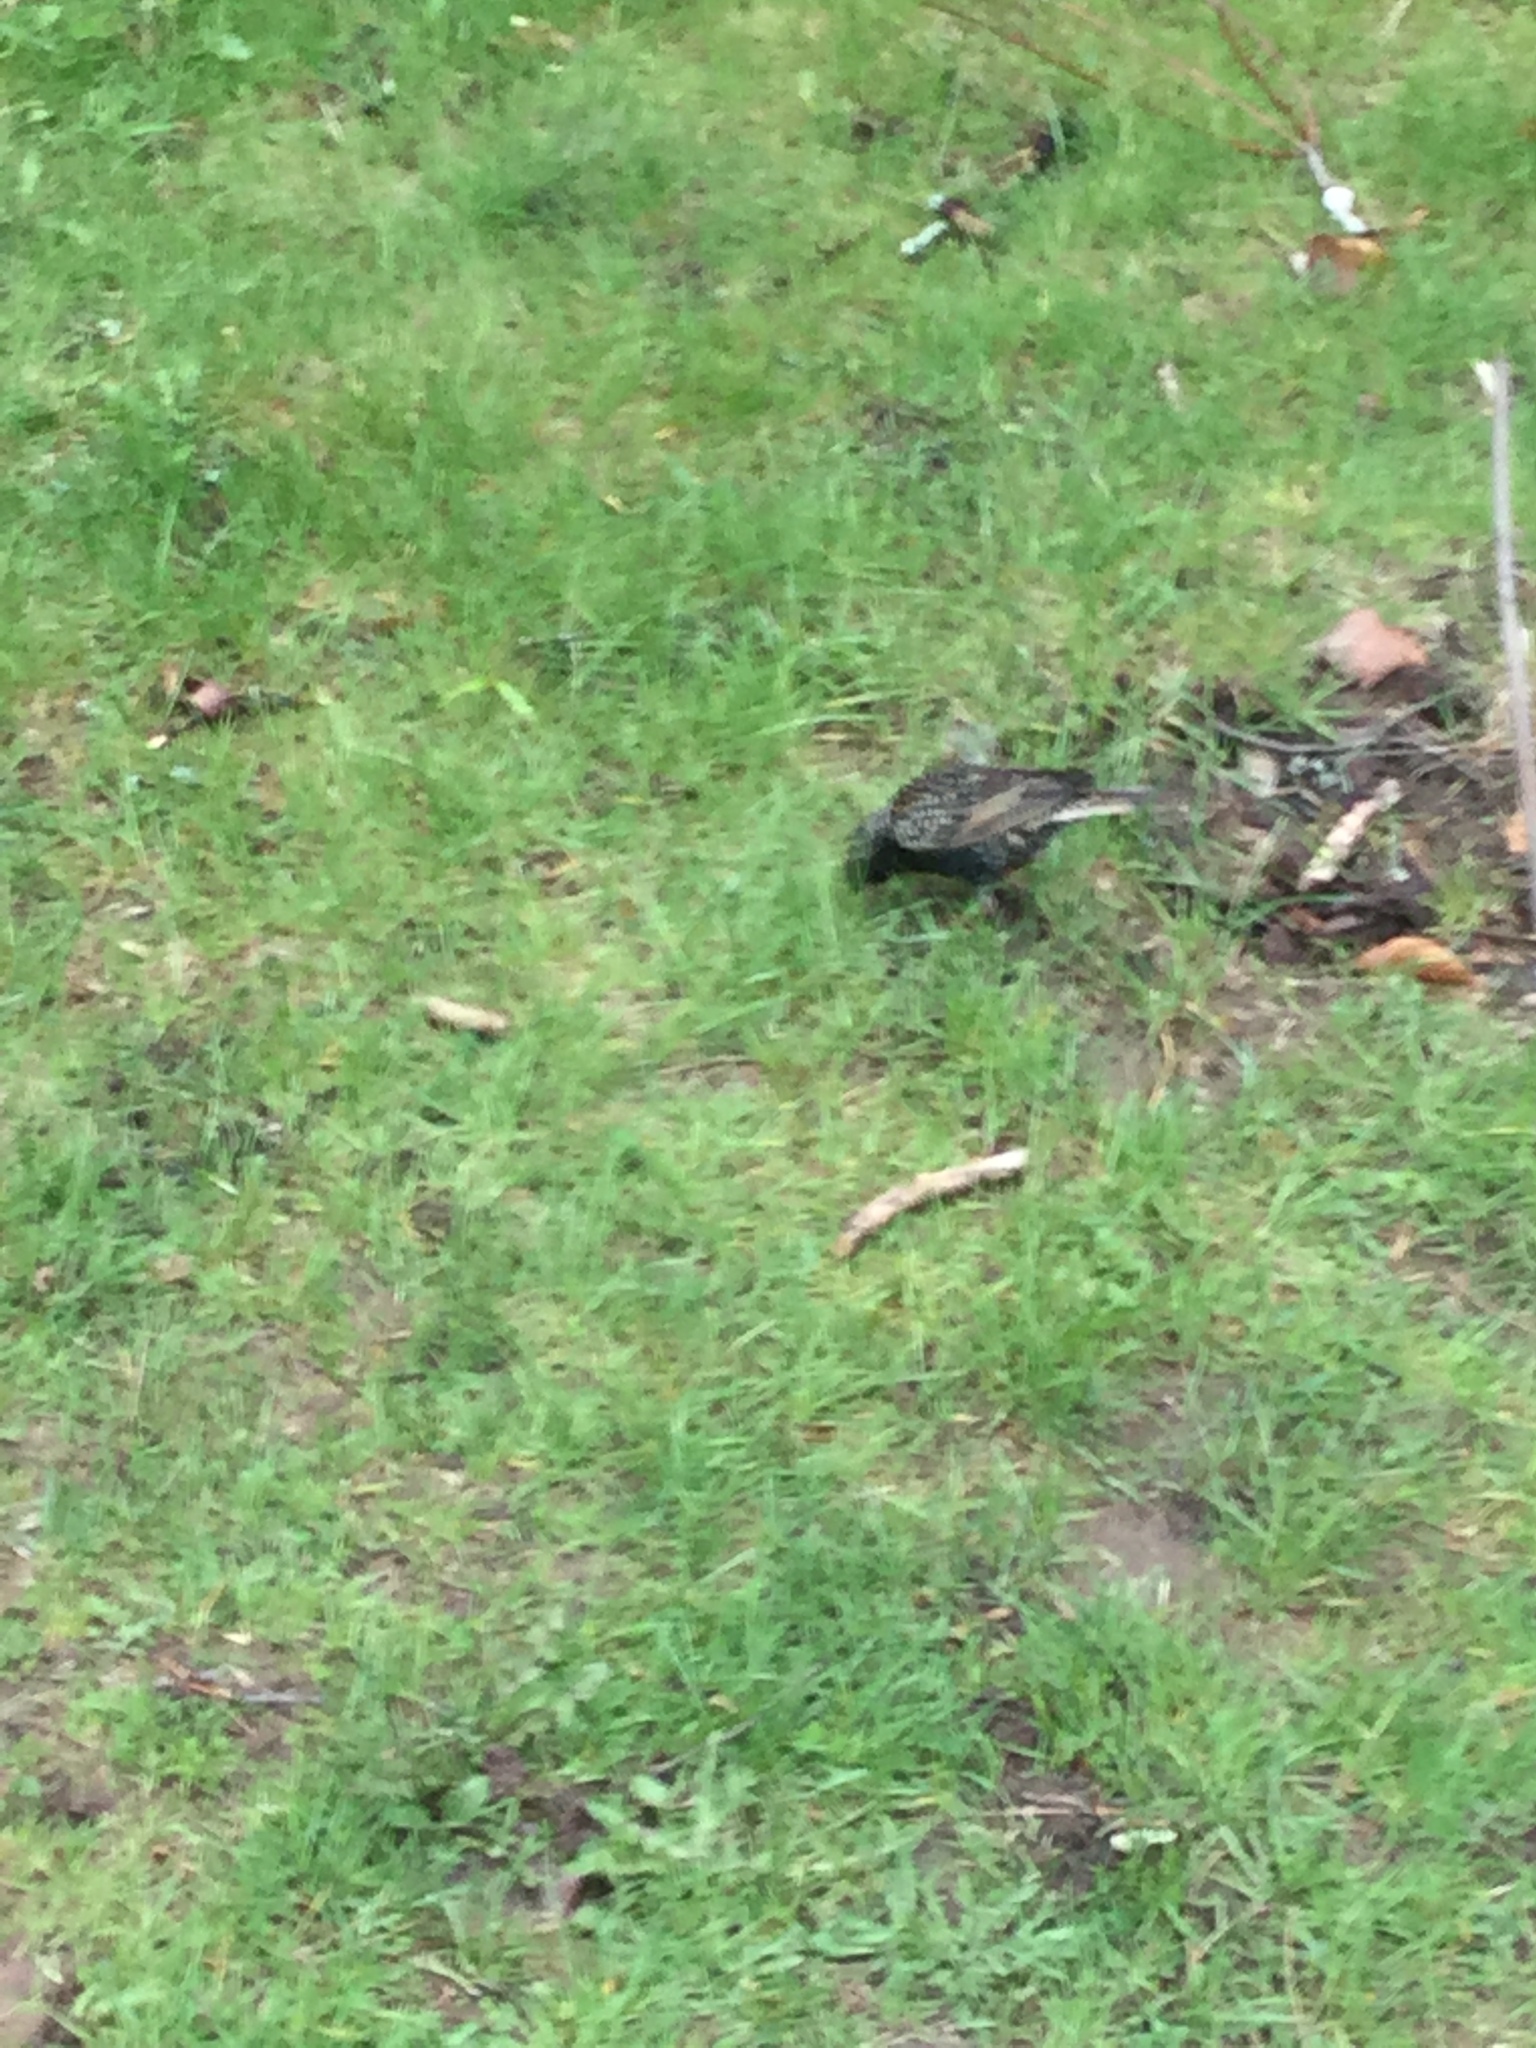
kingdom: Animalia
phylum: Chordata
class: Aves
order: Passeriformes
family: Sturnidae
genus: Sturnus
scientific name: Sturnus vulgaris
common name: Common starling
